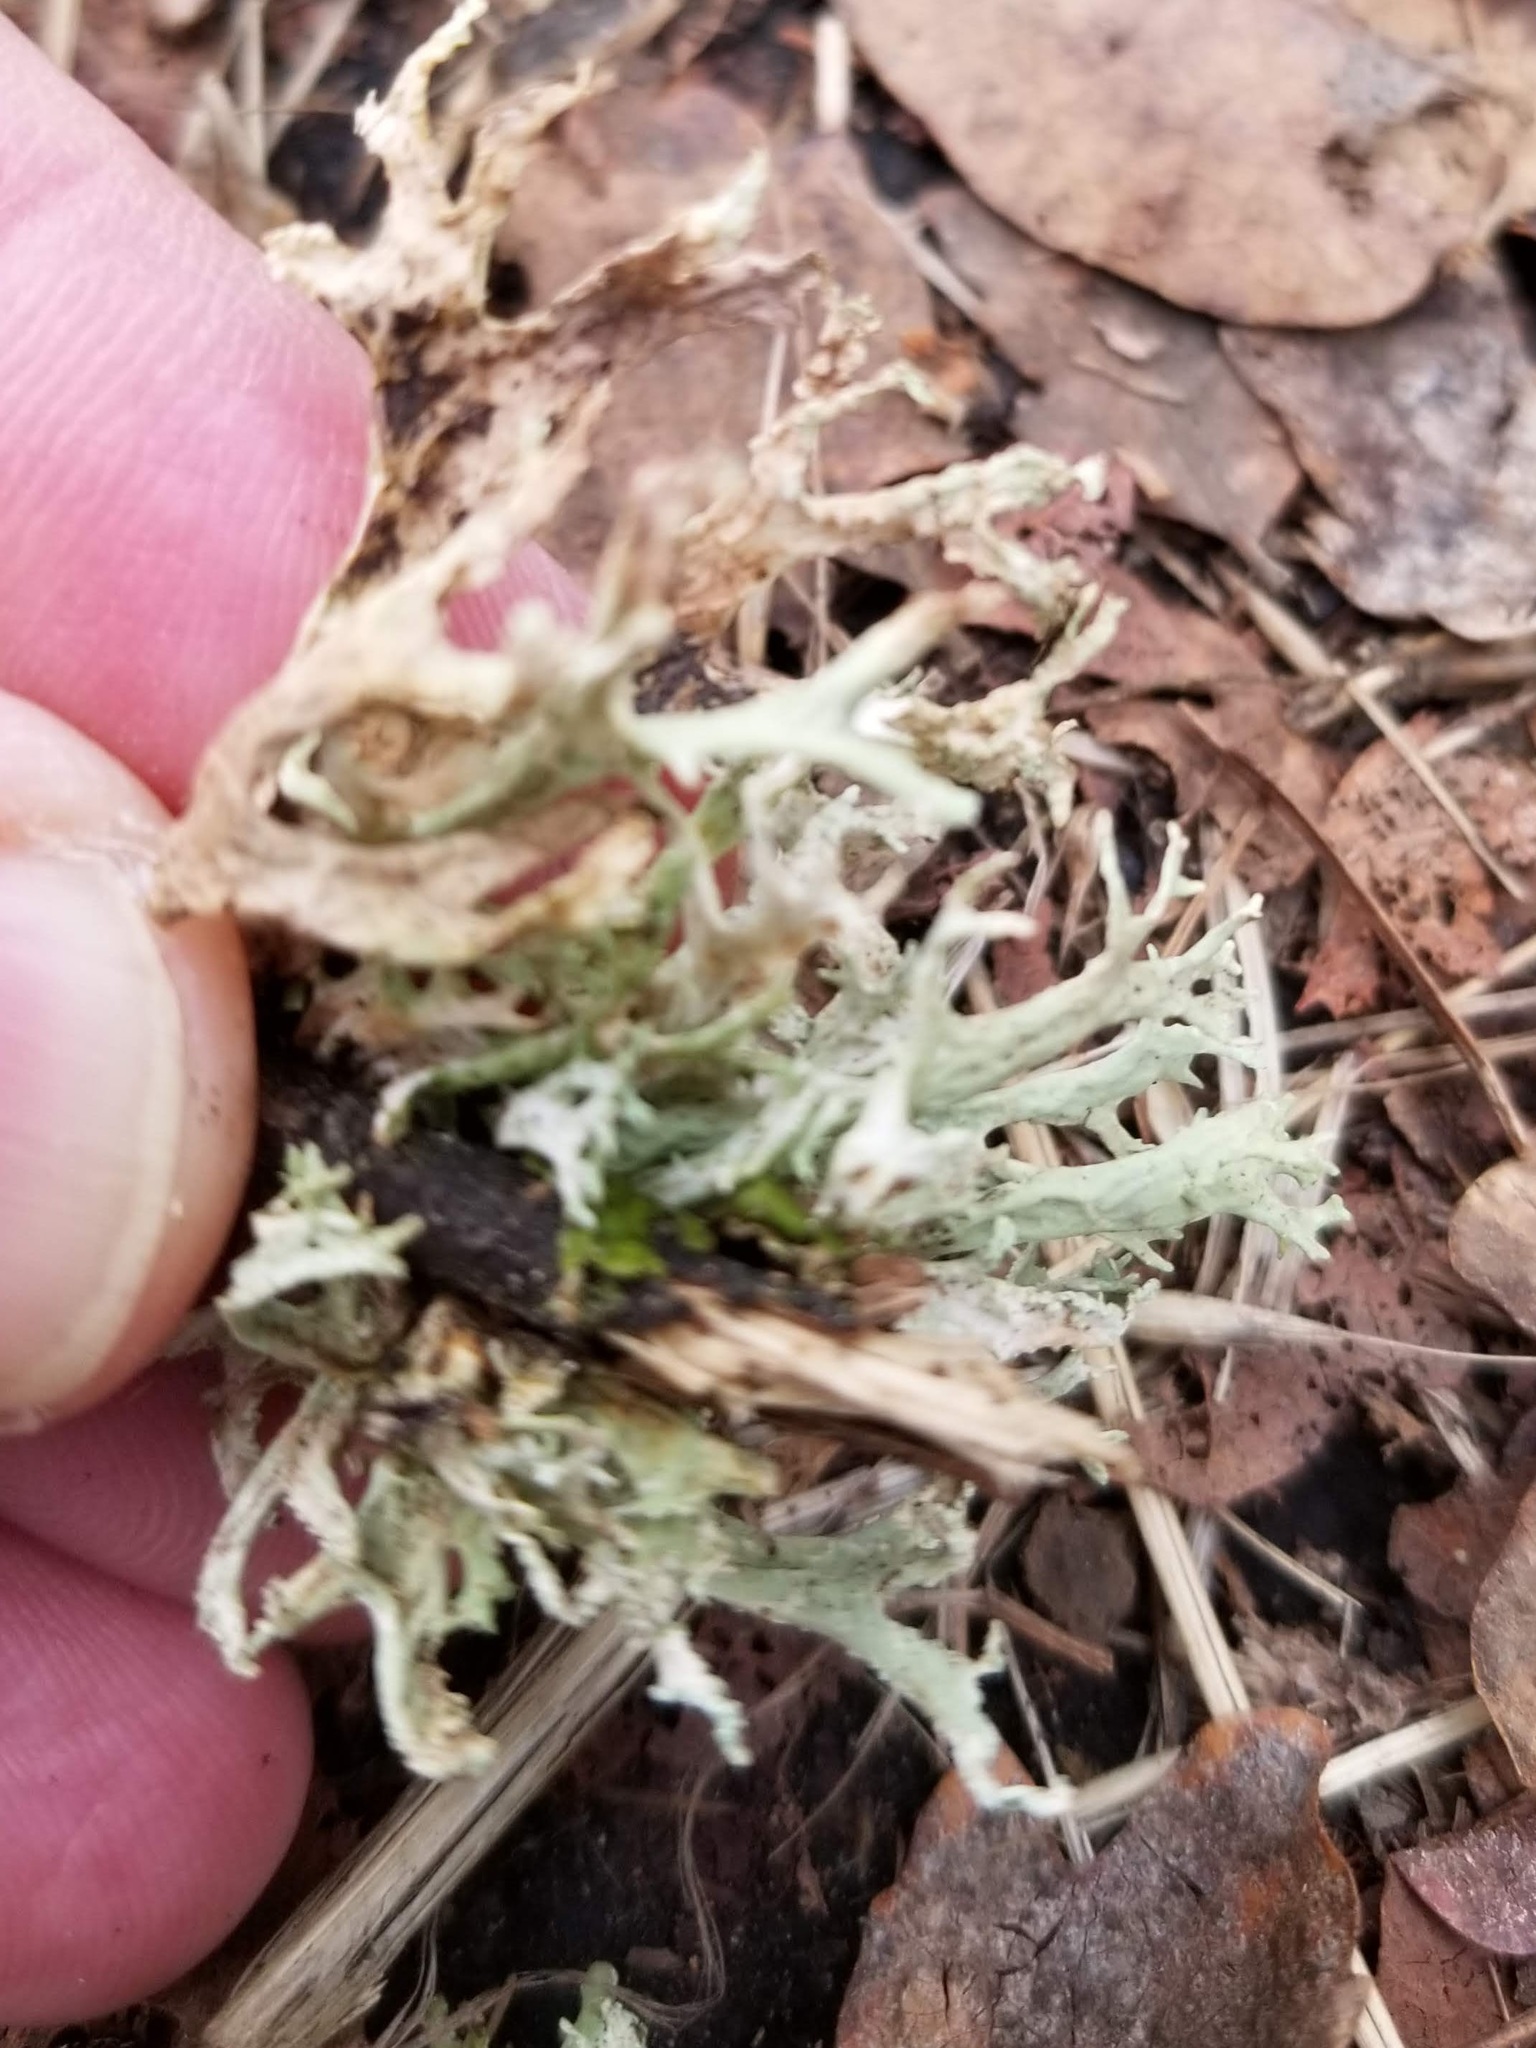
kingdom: Fungi
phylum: Ascomycota
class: Lecanoromycetes
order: Lecanorales
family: Parmeliaceae
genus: Evernia
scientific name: Evernia prunastri
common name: Oak moss
